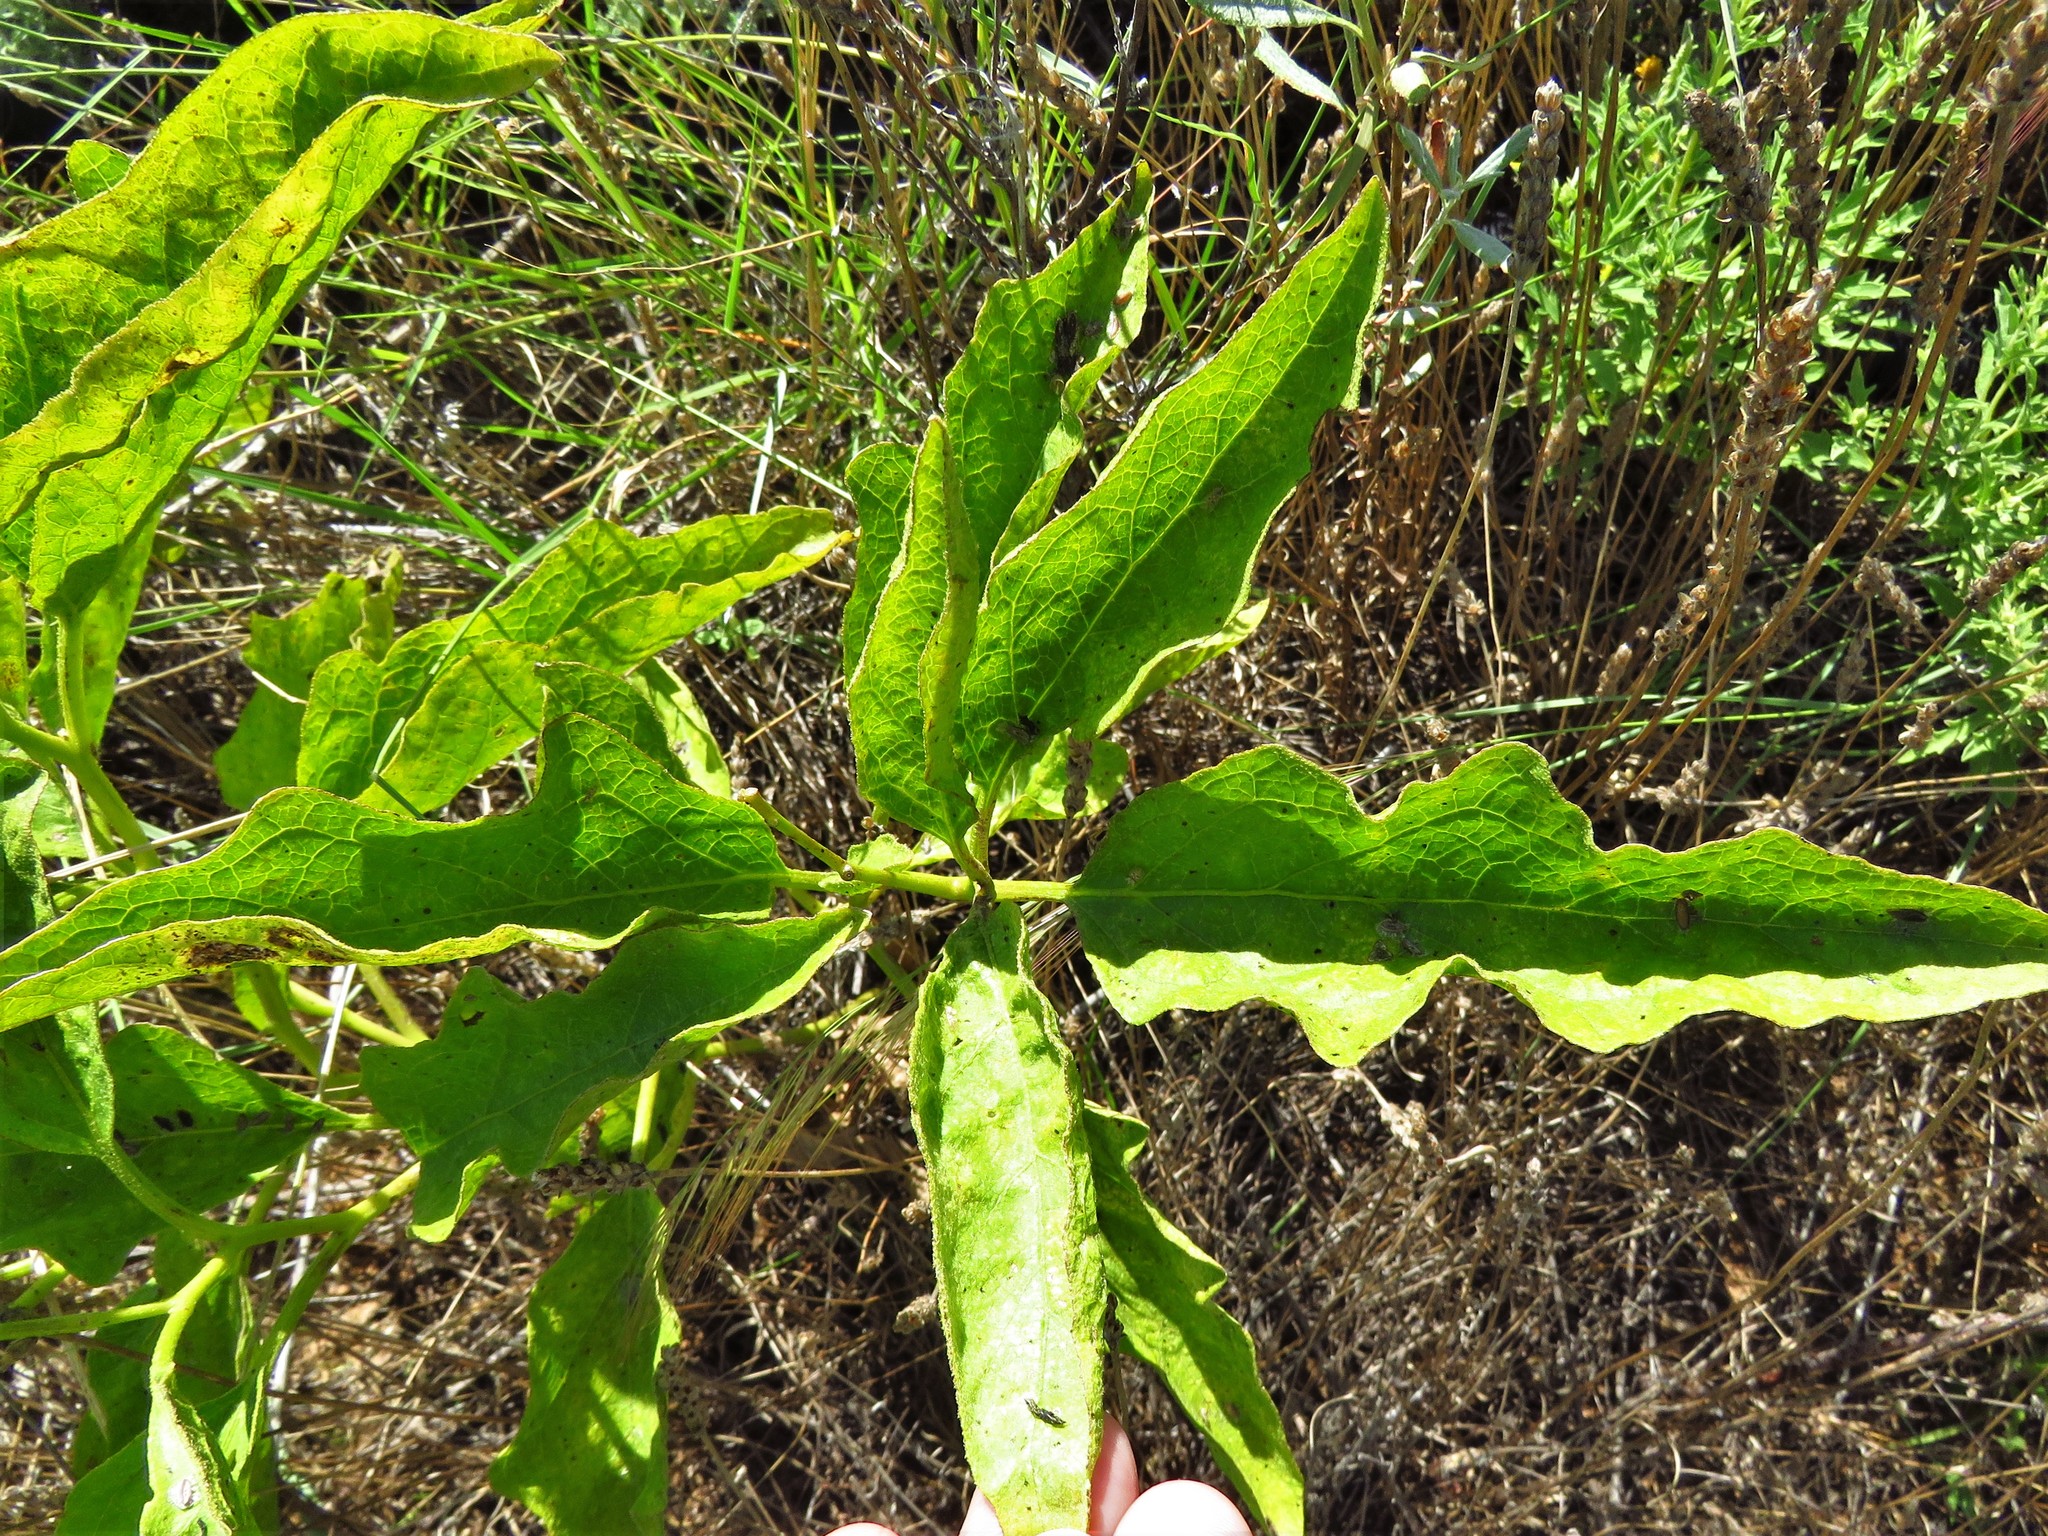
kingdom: Plantae
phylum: Tracheophyta
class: Magnoliopsida
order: Solanales
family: Solanaceae
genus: Solanum
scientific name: Solanum dimidiatum
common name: Carolina horse-nettle
